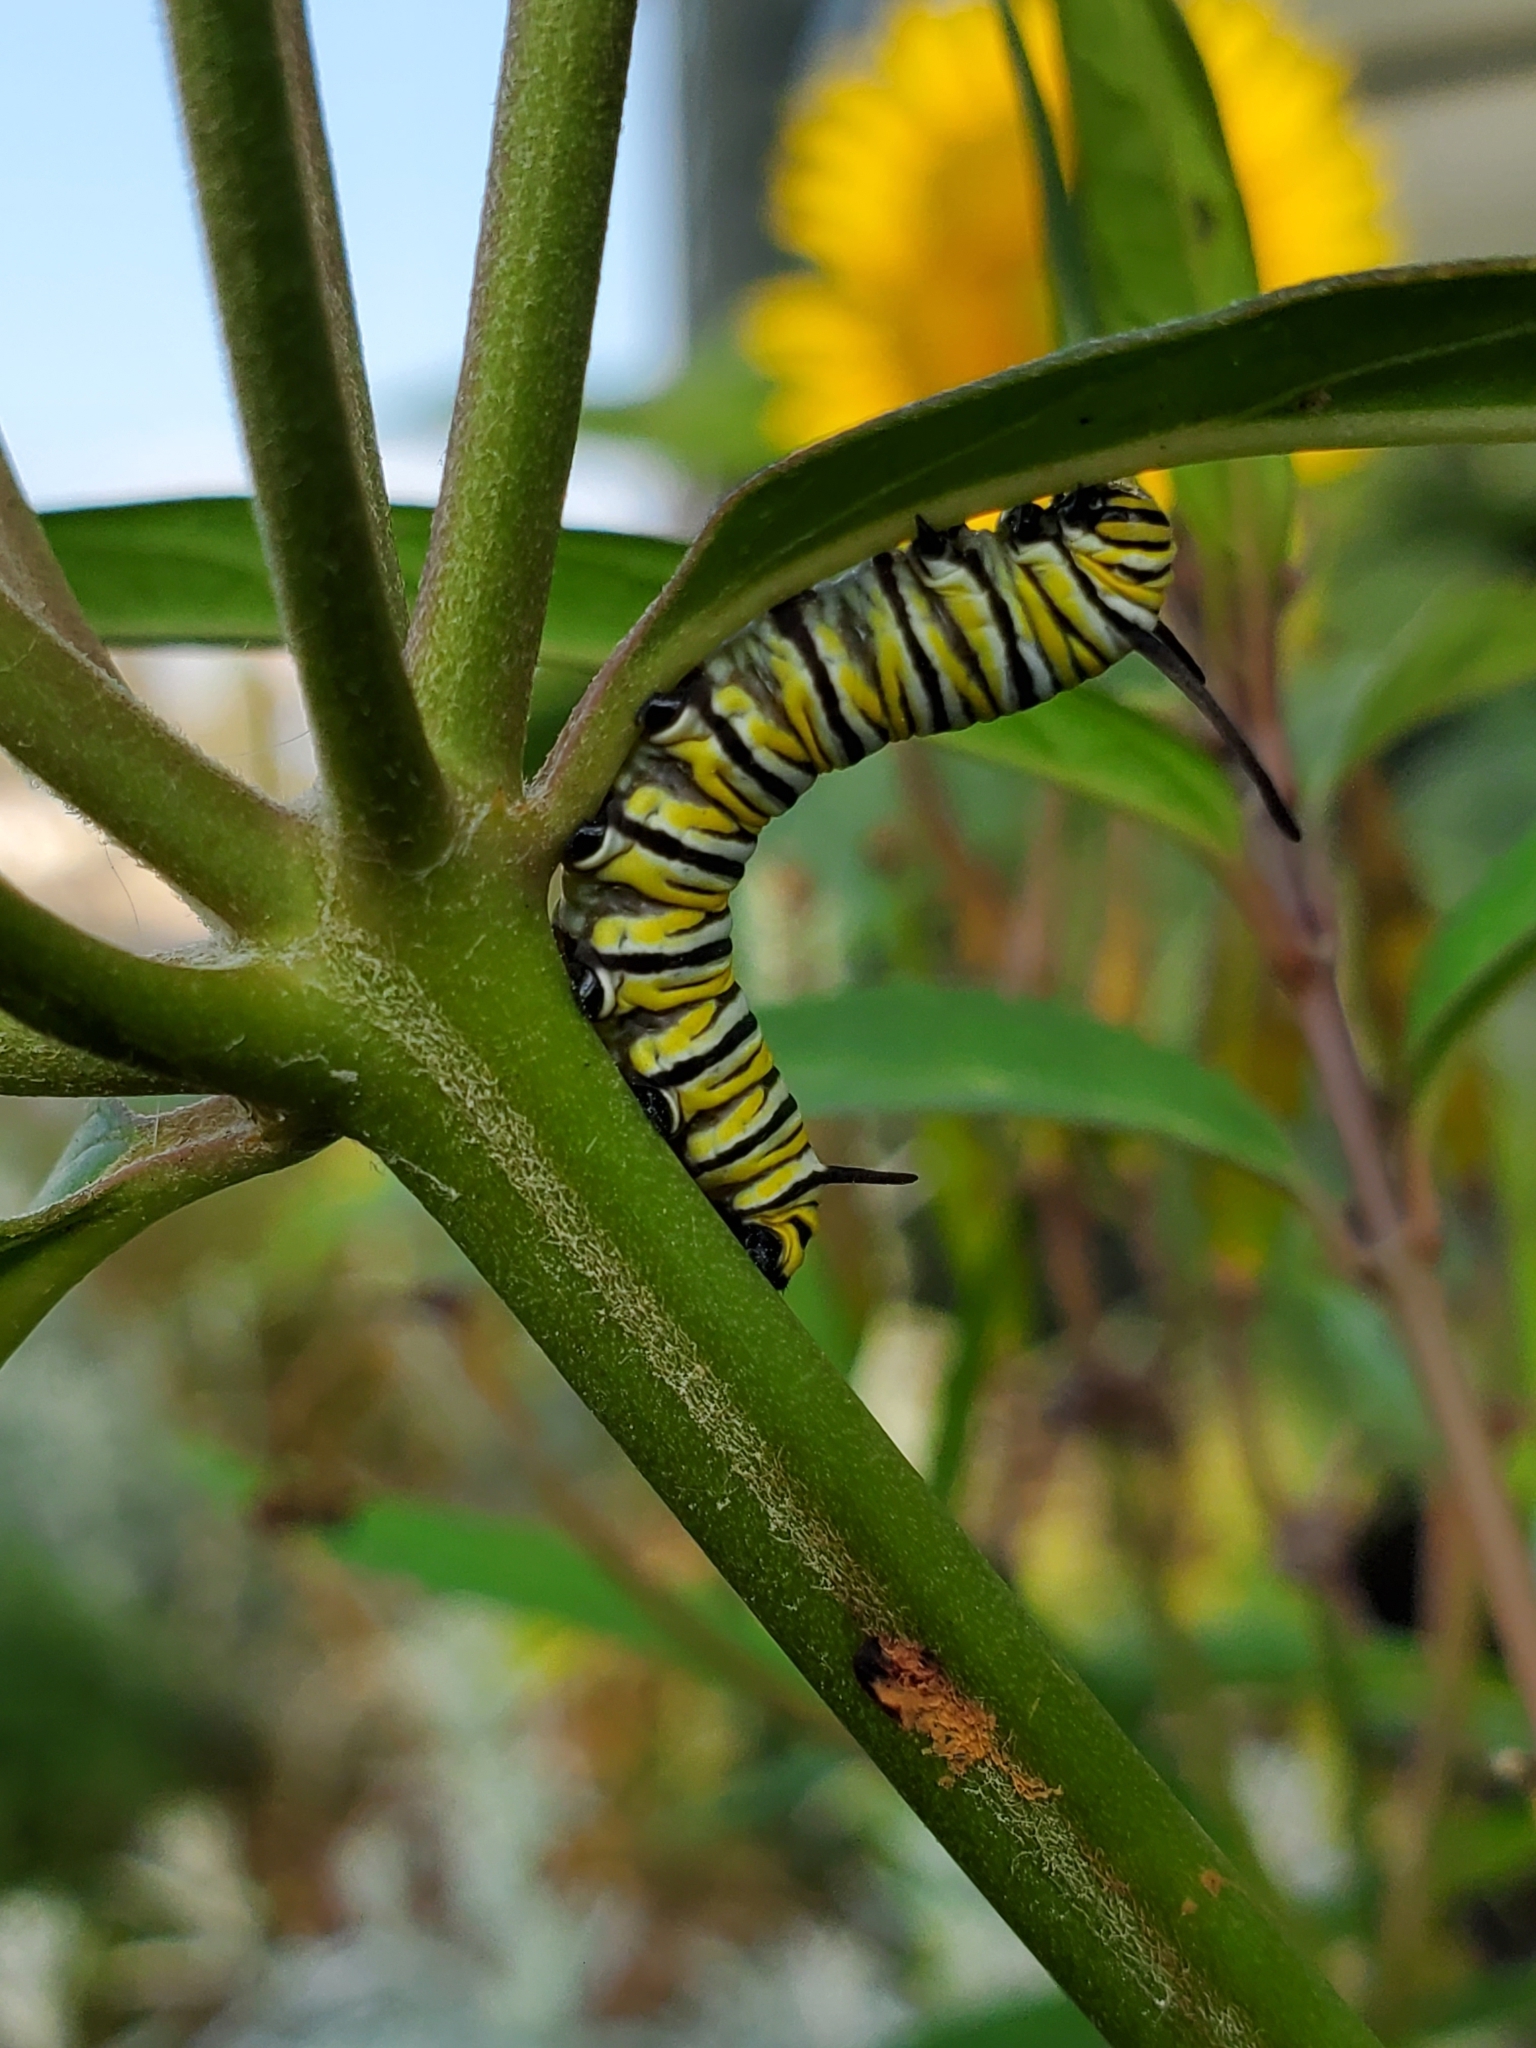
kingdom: Animalia
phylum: Arthropoda
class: Insecta
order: Lepidoptera
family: Nymphalidae
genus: Danaus
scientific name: Danaus plexippus
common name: Monarch
